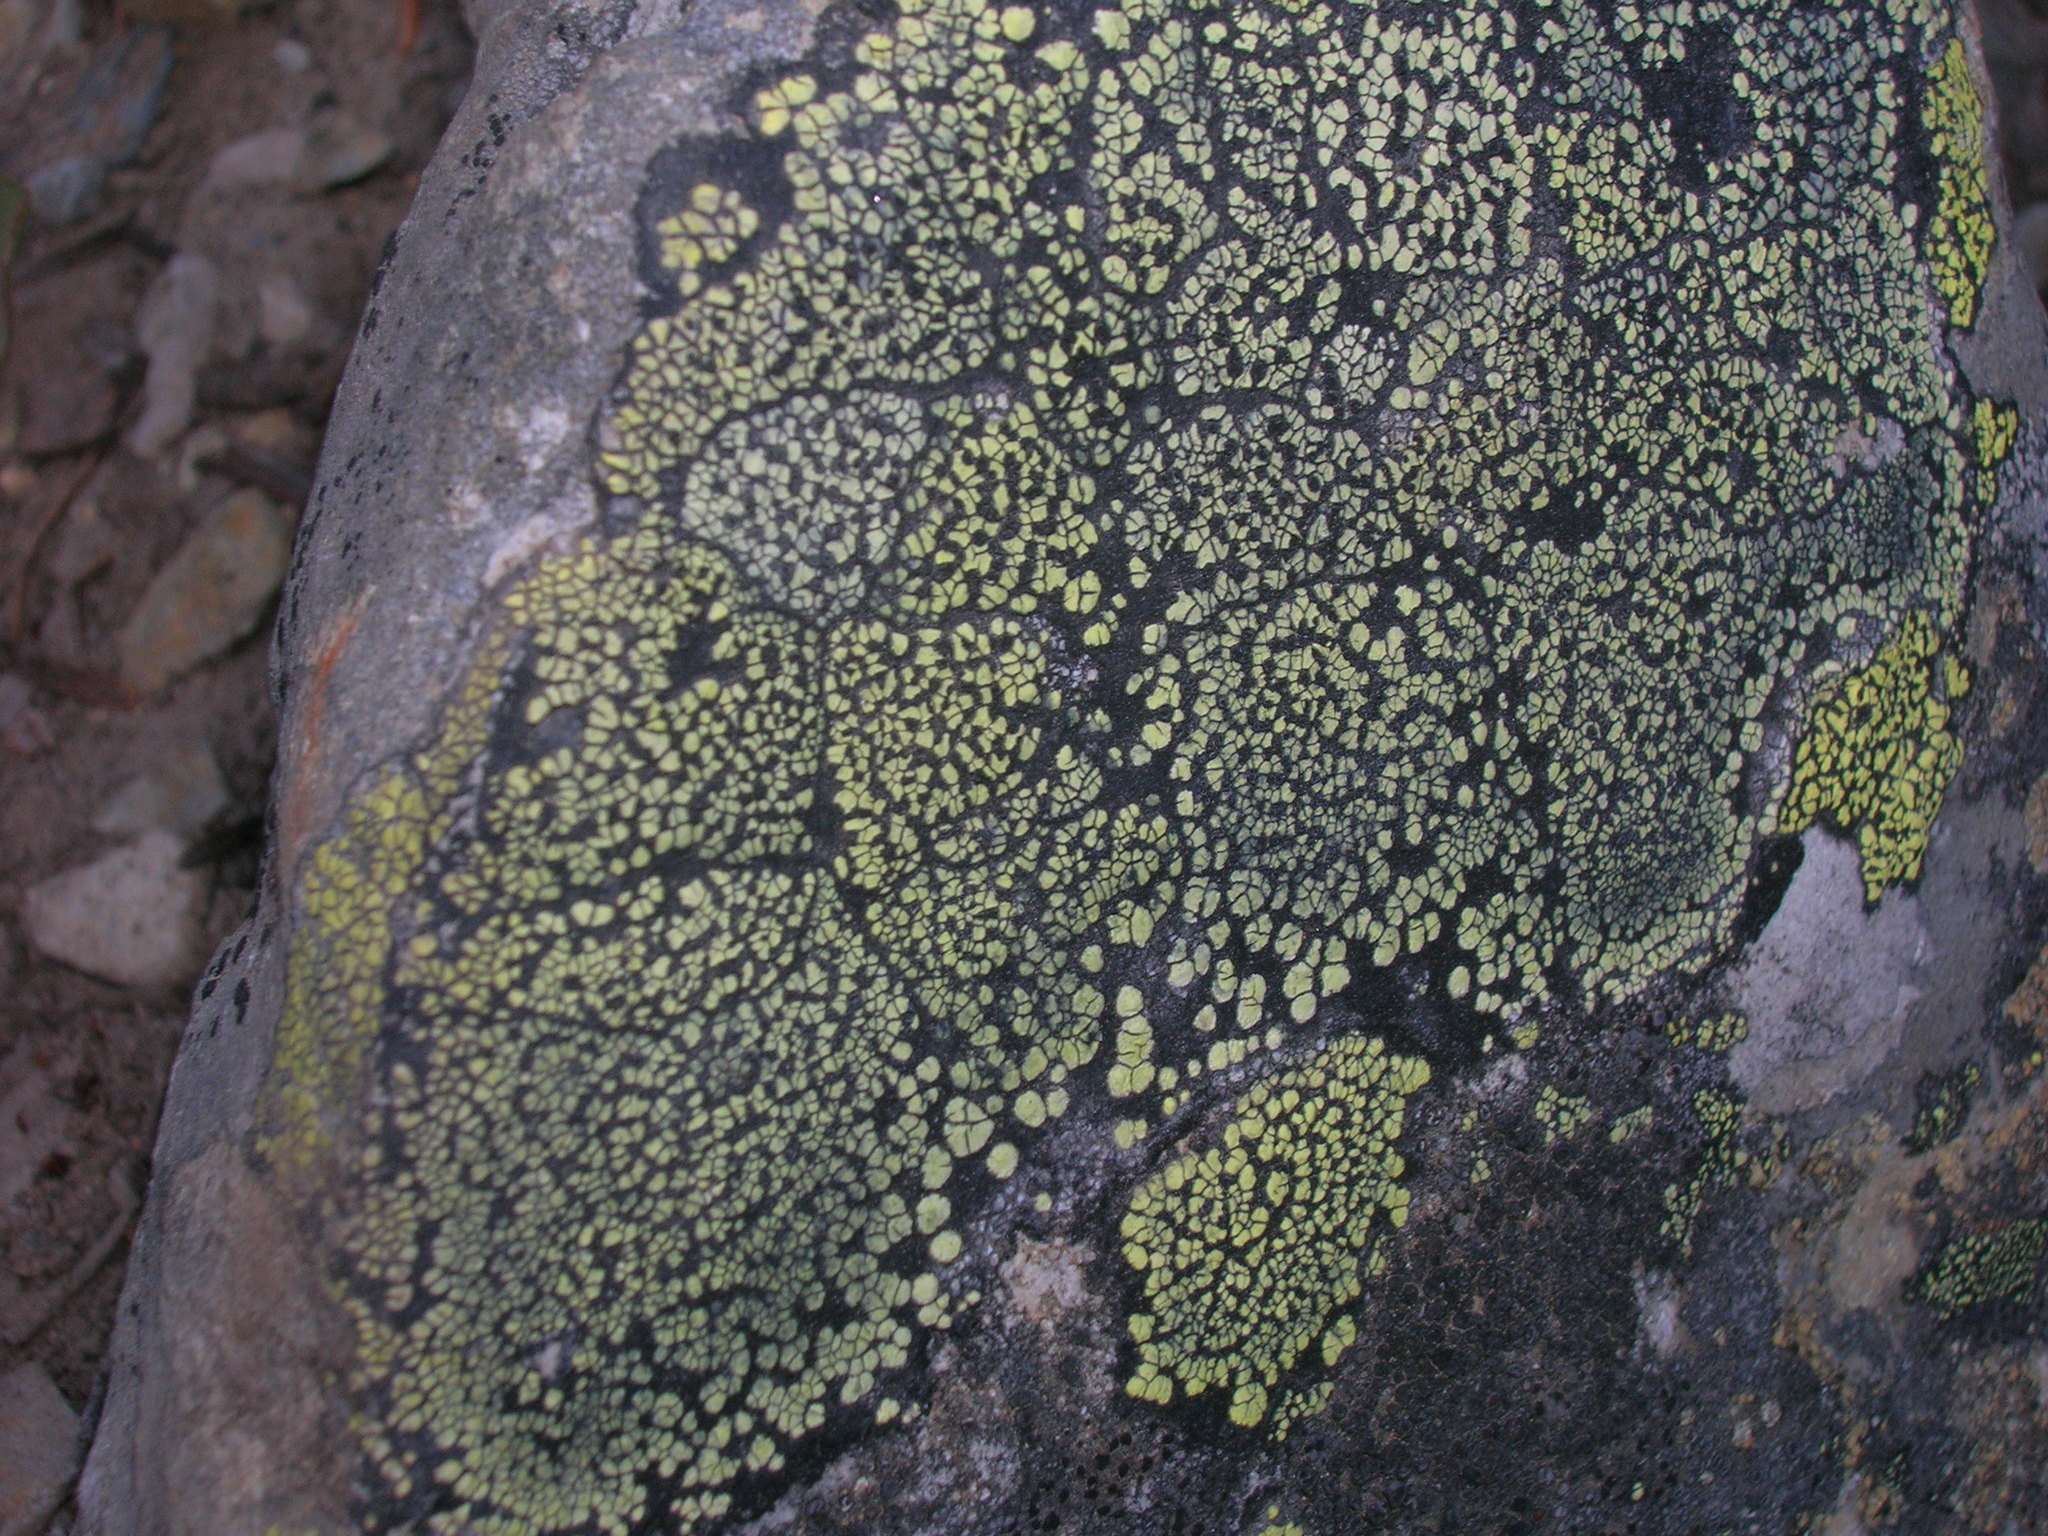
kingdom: Fungi
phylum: Ascomycota
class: Lecanoromycetes
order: Rhizocarpales
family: Rhizocarpaceae
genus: Rhizocarpon
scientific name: Rhizocarpon geographicum
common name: Yellow map lichen
